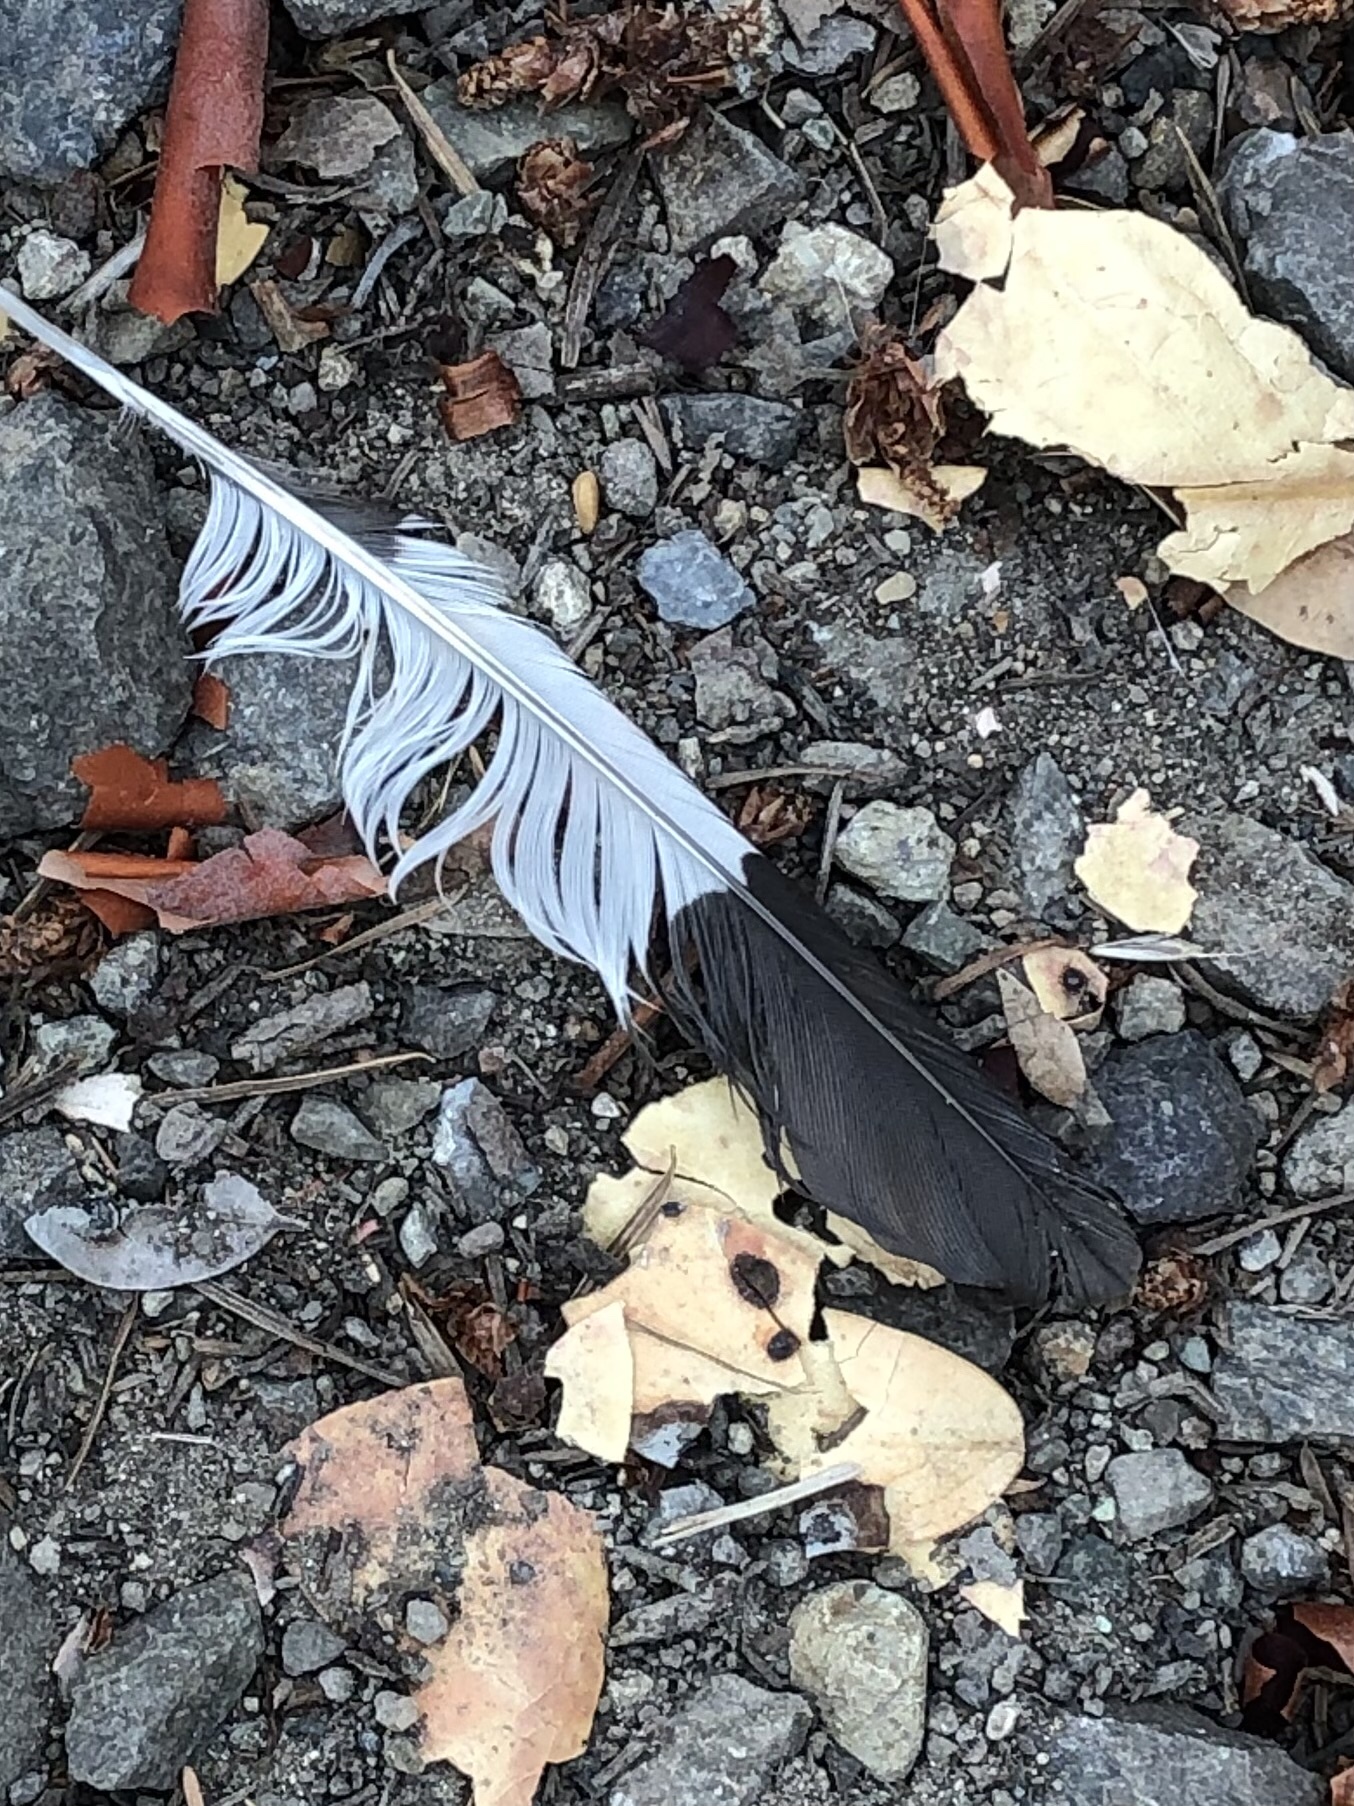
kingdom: Animalia
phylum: Chordata
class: Aves
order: Piciformes
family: Picidae
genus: Melanerpes
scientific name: Melanerpes formicivorus
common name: Acorn woodpecker
